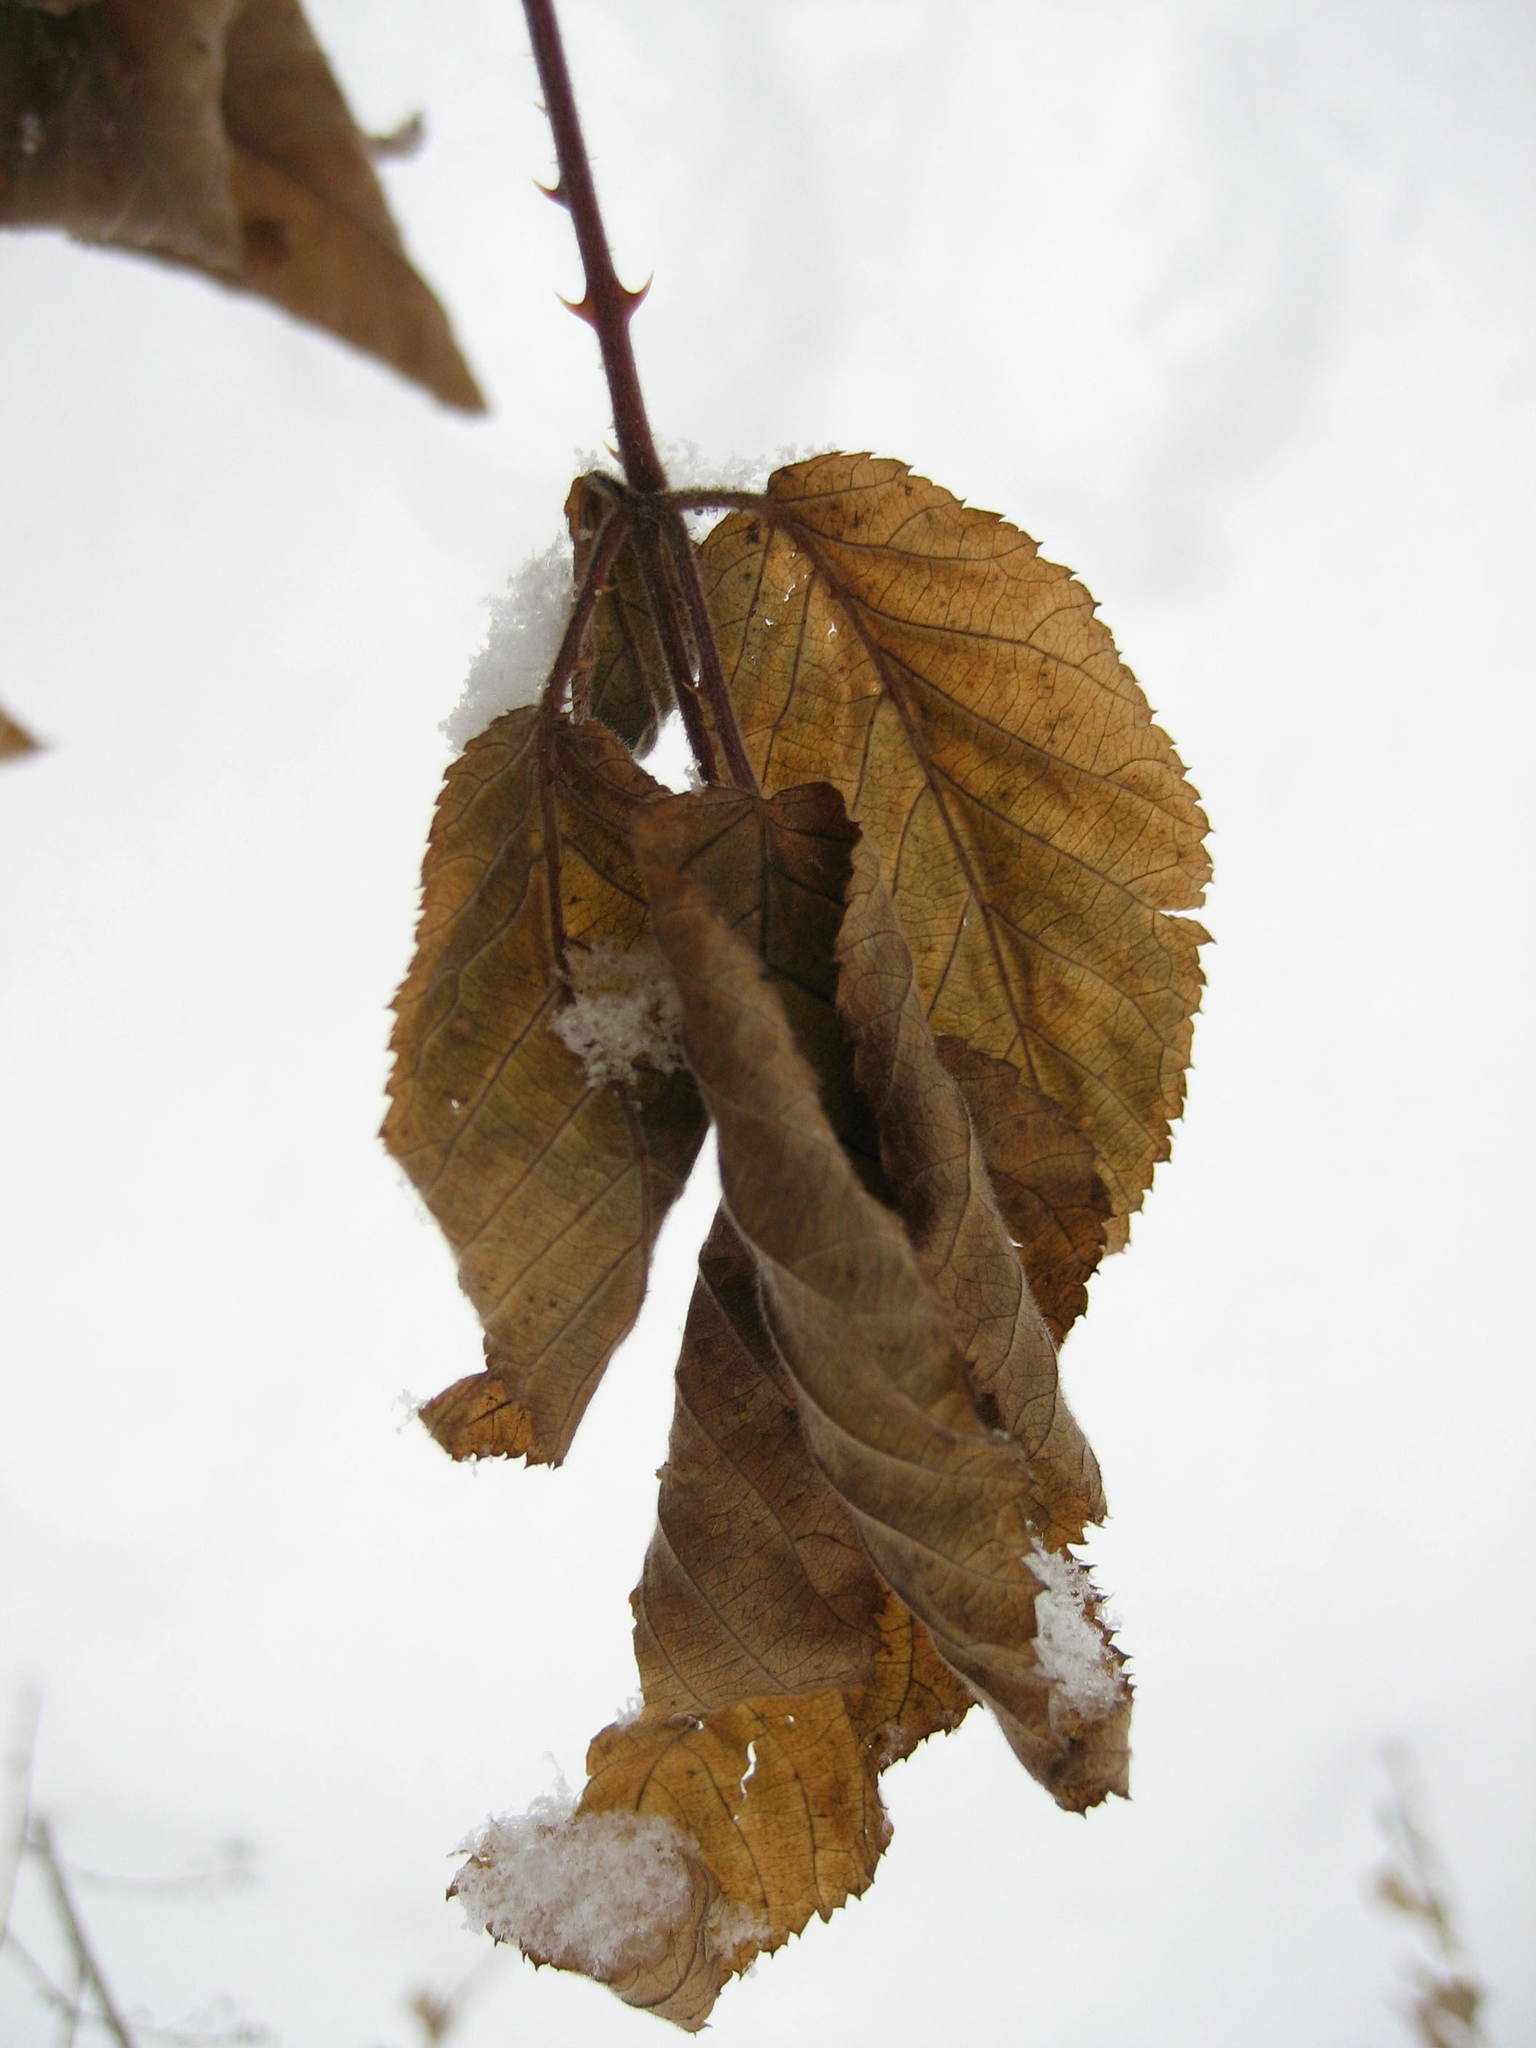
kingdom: Plantae
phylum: Tracheophyta
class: Magnoliopsida
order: Rosales
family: Rosaceae
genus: Rubus
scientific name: Rubus allegheniensis
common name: Allegheny blackberry
